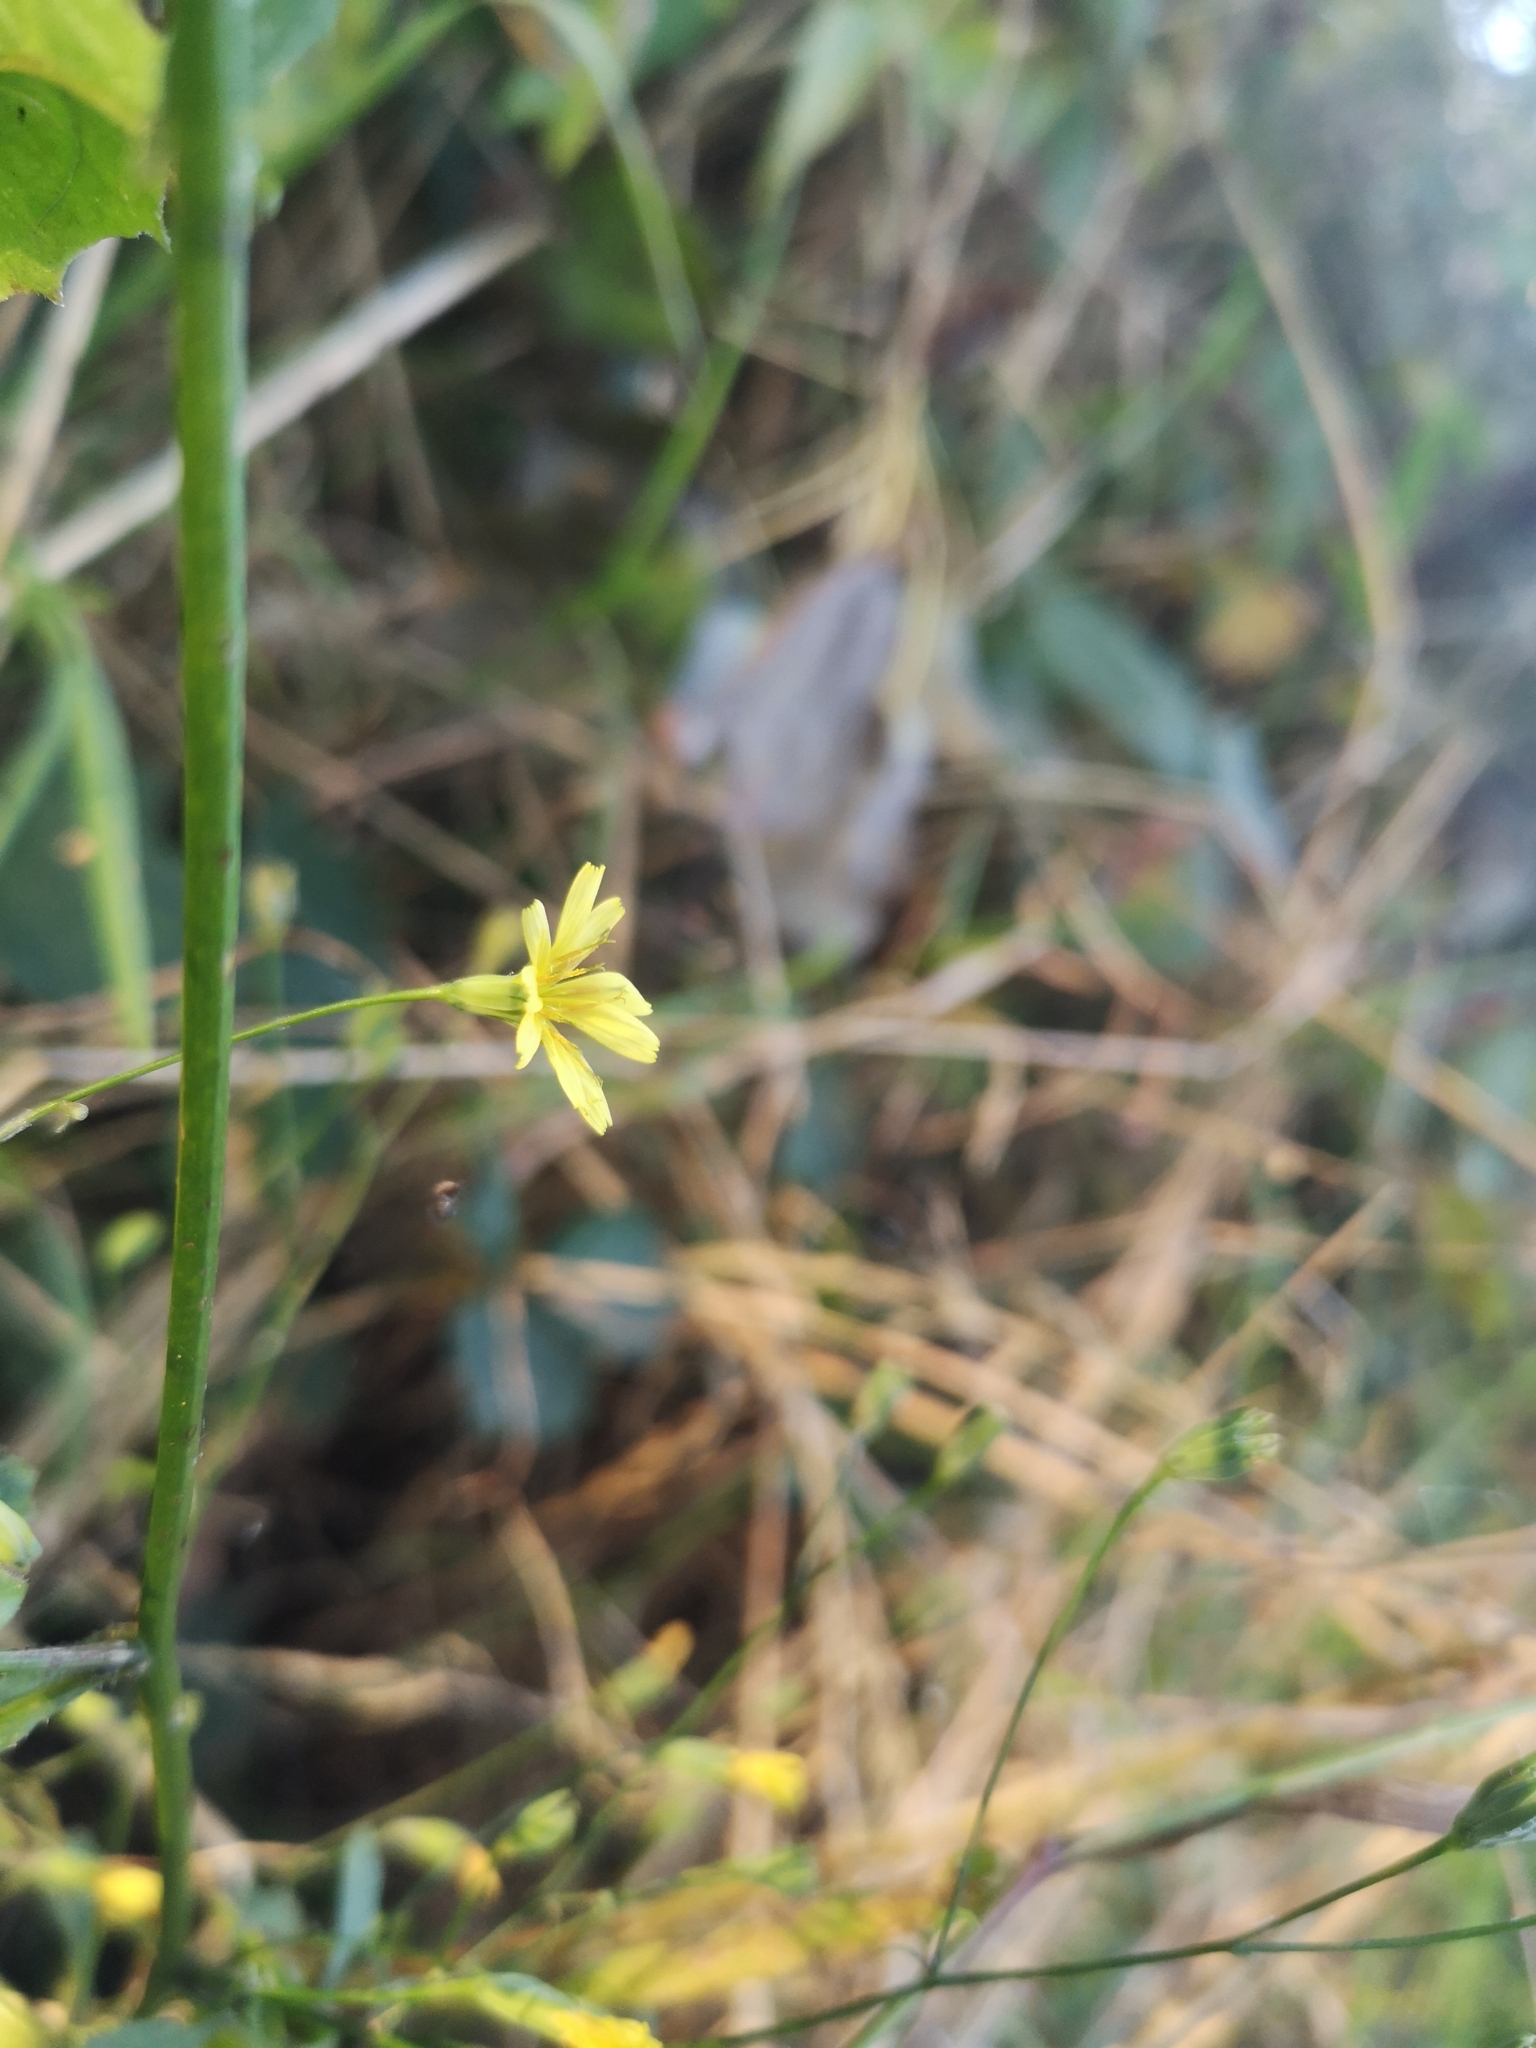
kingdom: Plantae
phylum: Tracheophyta
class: Magnoliopsida
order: Asterales
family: Asteraceae
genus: Lapsana
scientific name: Lapsana communis
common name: Nipplewort
